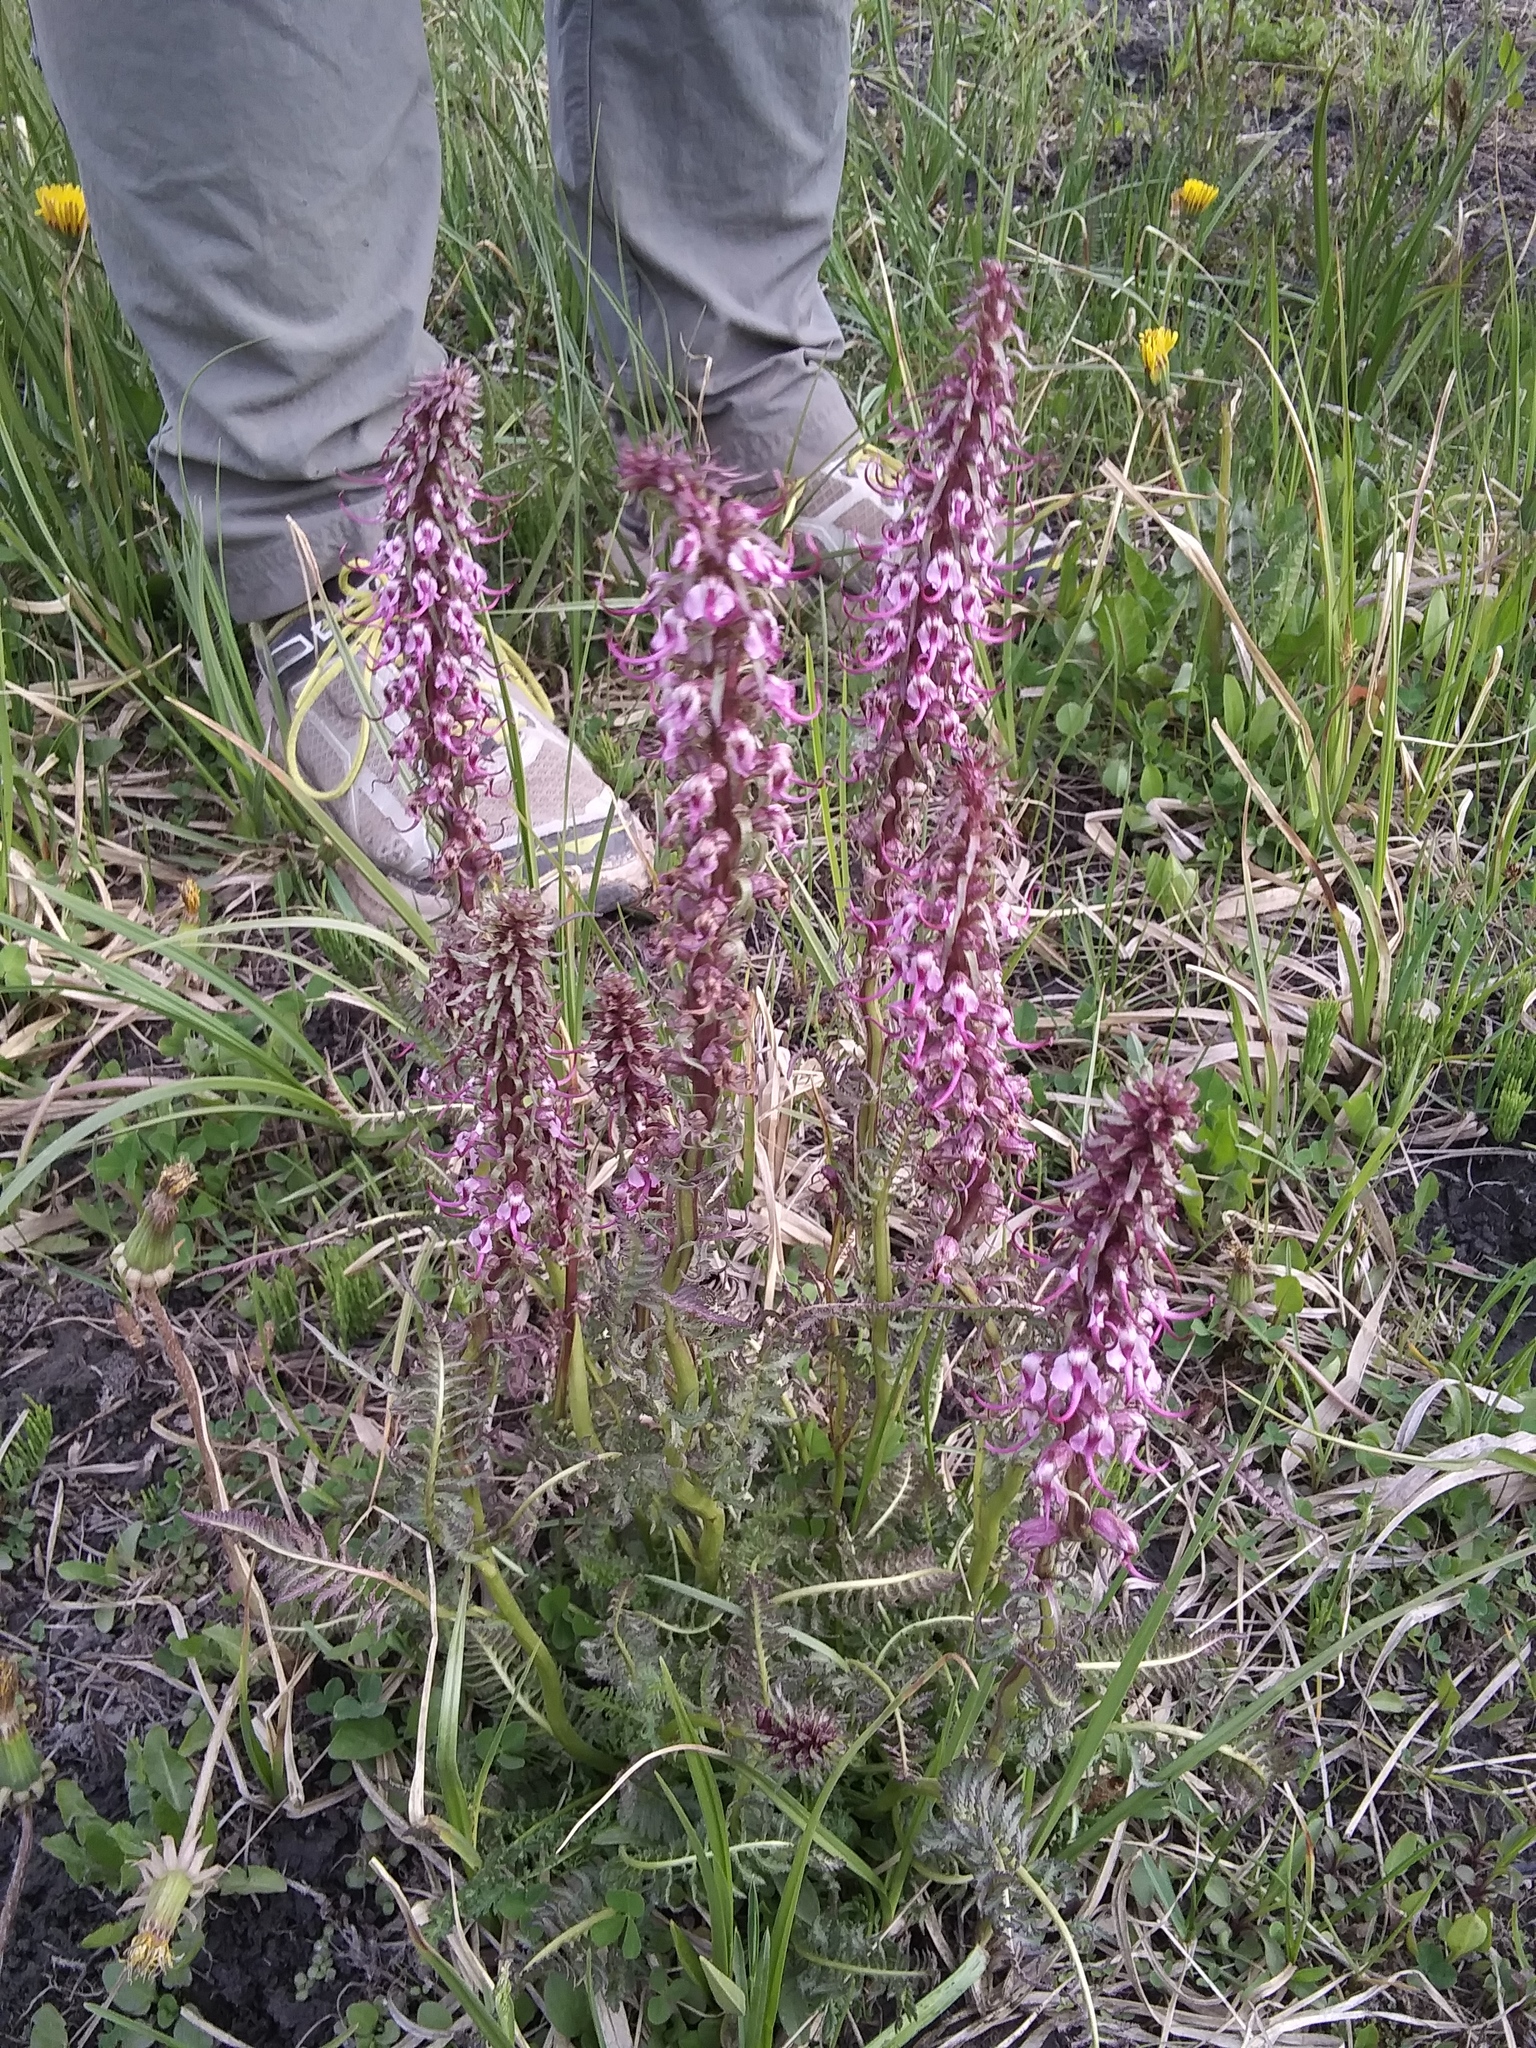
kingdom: Plantae
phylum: Tracheophyta
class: Magnoliopsida
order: Lamiales
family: Orobanchaceae
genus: Pedicularis
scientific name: Pedicularis groenlandica
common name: Elephant's-head
